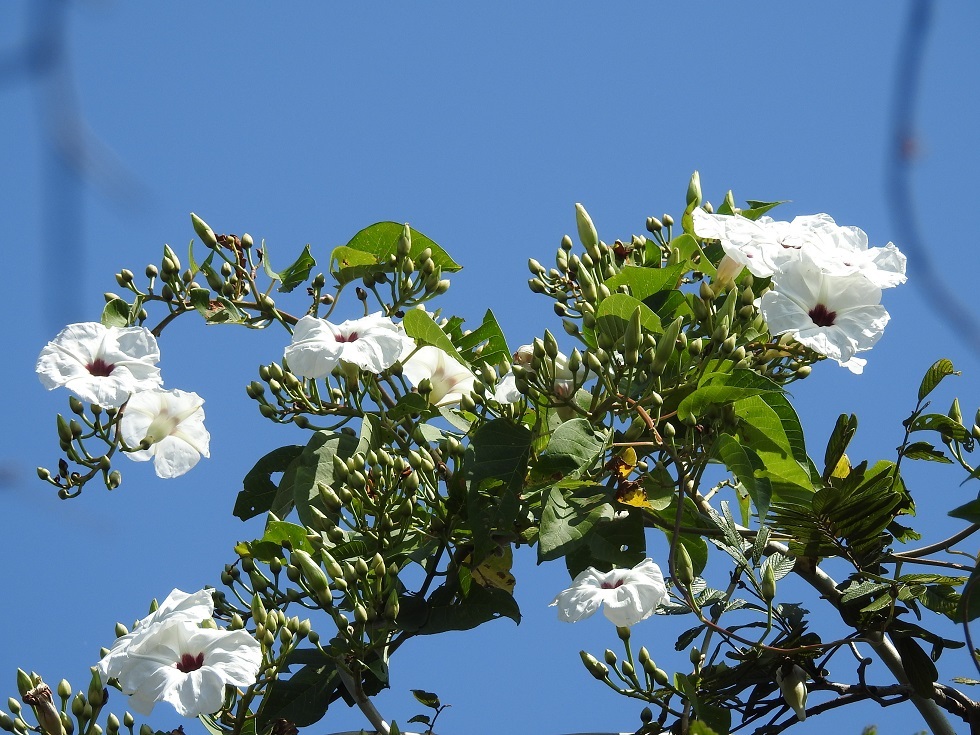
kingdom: Plantae
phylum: Tracheophyta
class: Magnoliopsida
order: Solanales
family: Convolvulaceae
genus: Ipomoea
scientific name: Ipomoea pauciflora
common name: Tree morningglory
